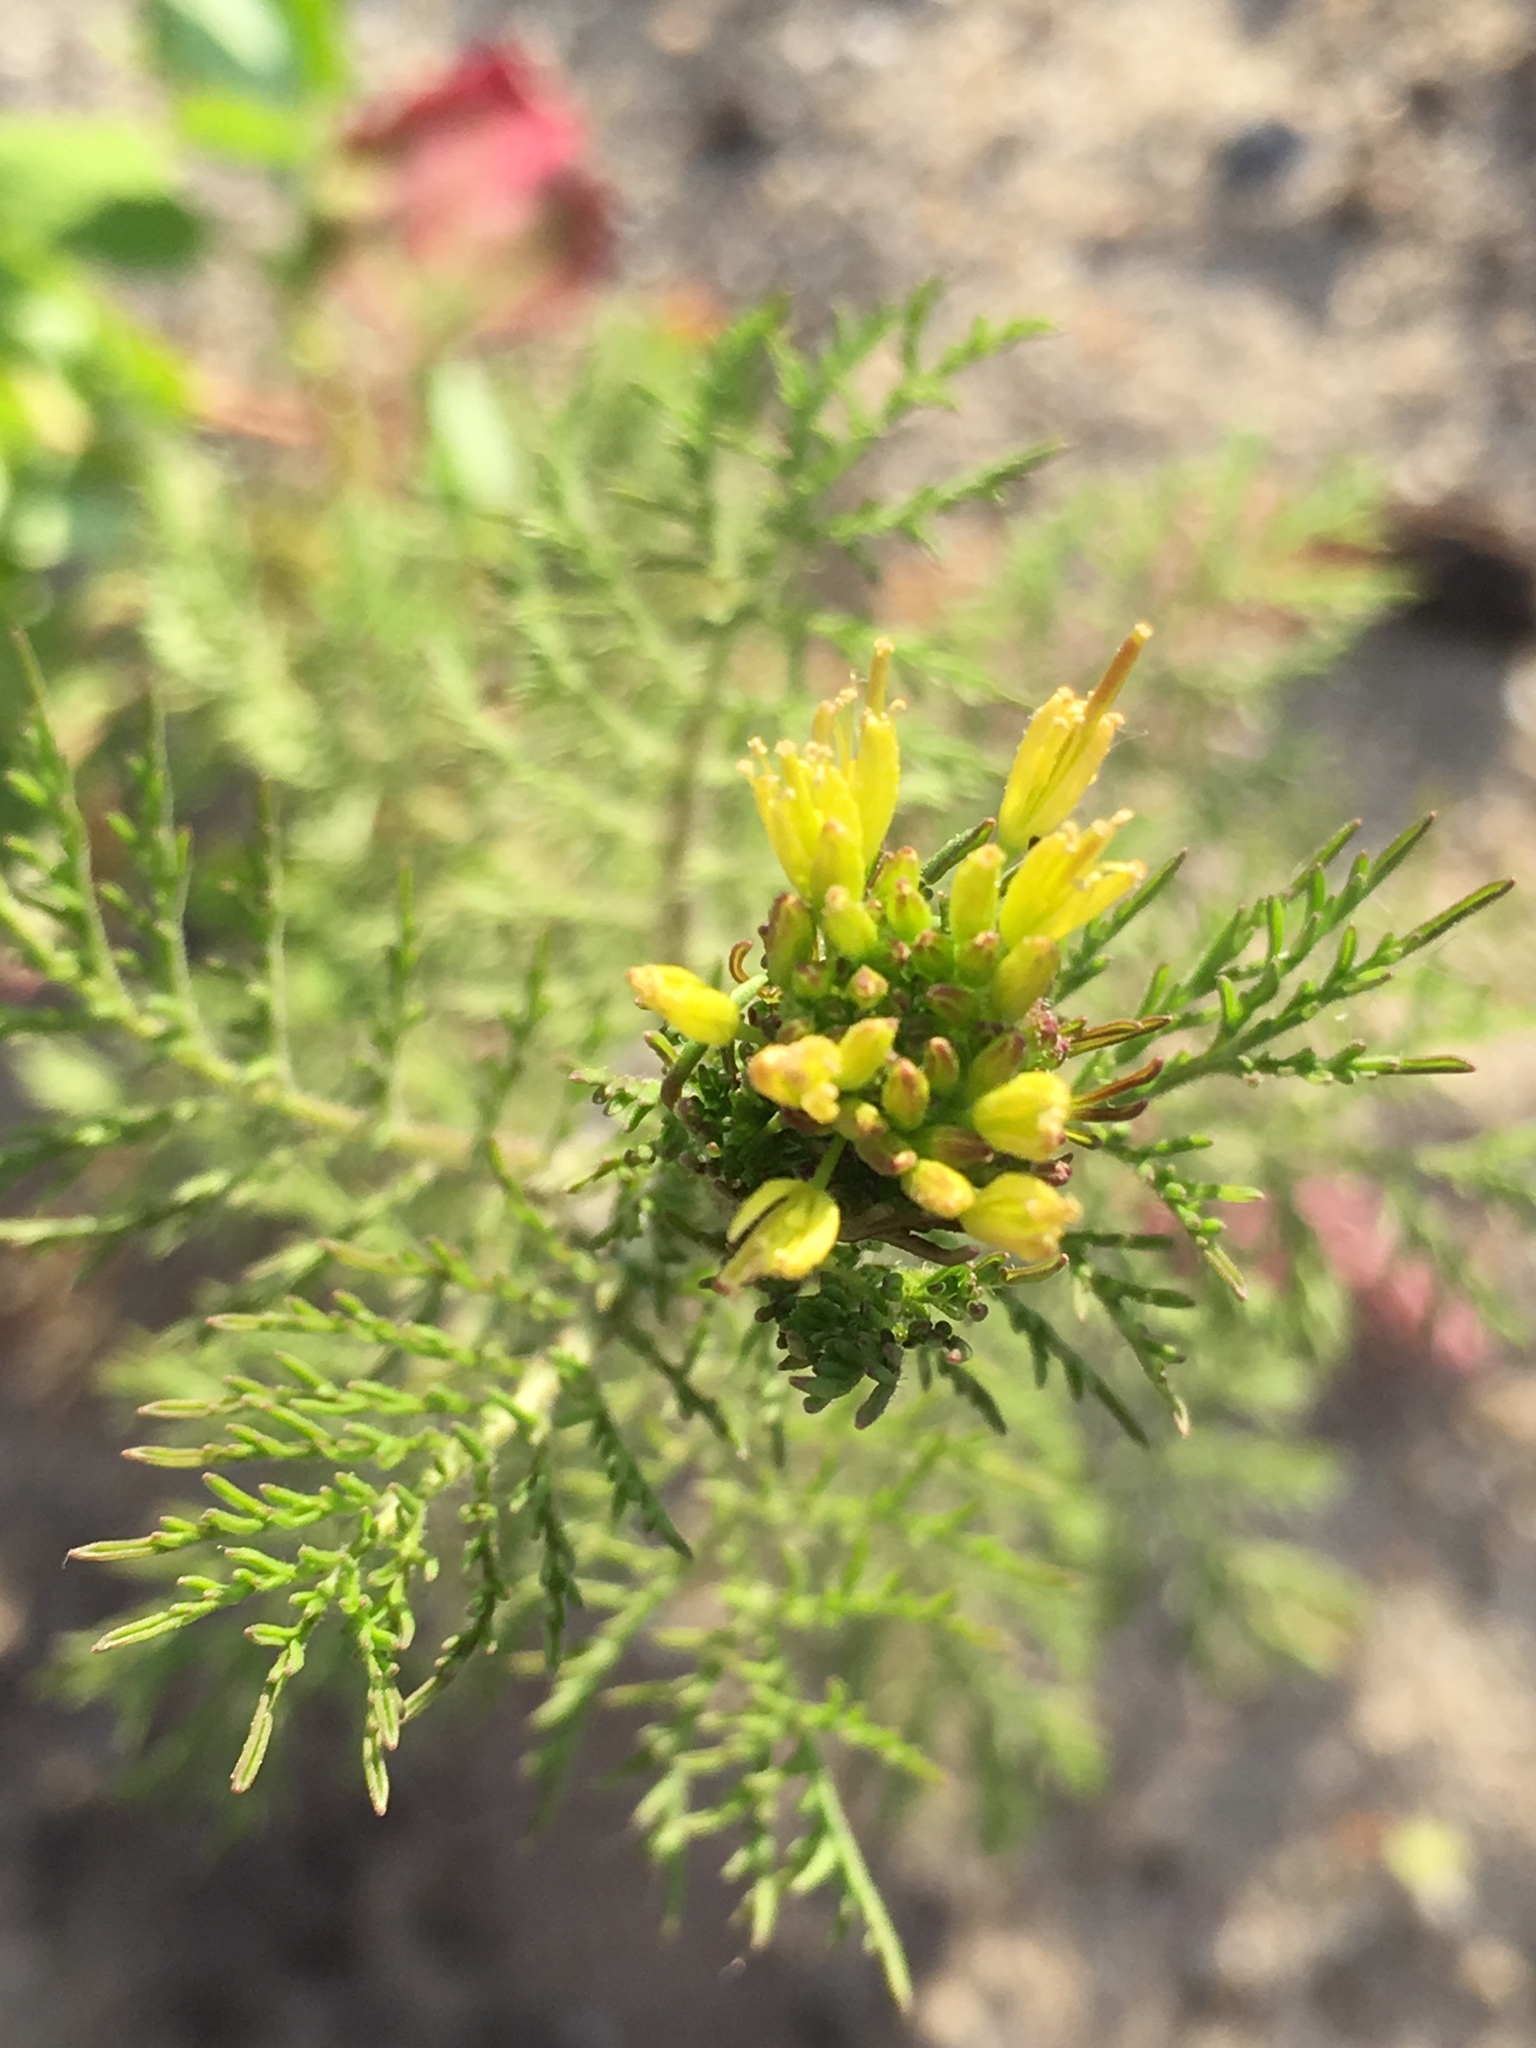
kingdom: Plantae
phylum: Tracheophyta
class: Magnoliopsida
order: Brassicales
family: Brassicaceae
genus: Descurainia
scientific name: Descurainia sophia
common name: Flixweed
